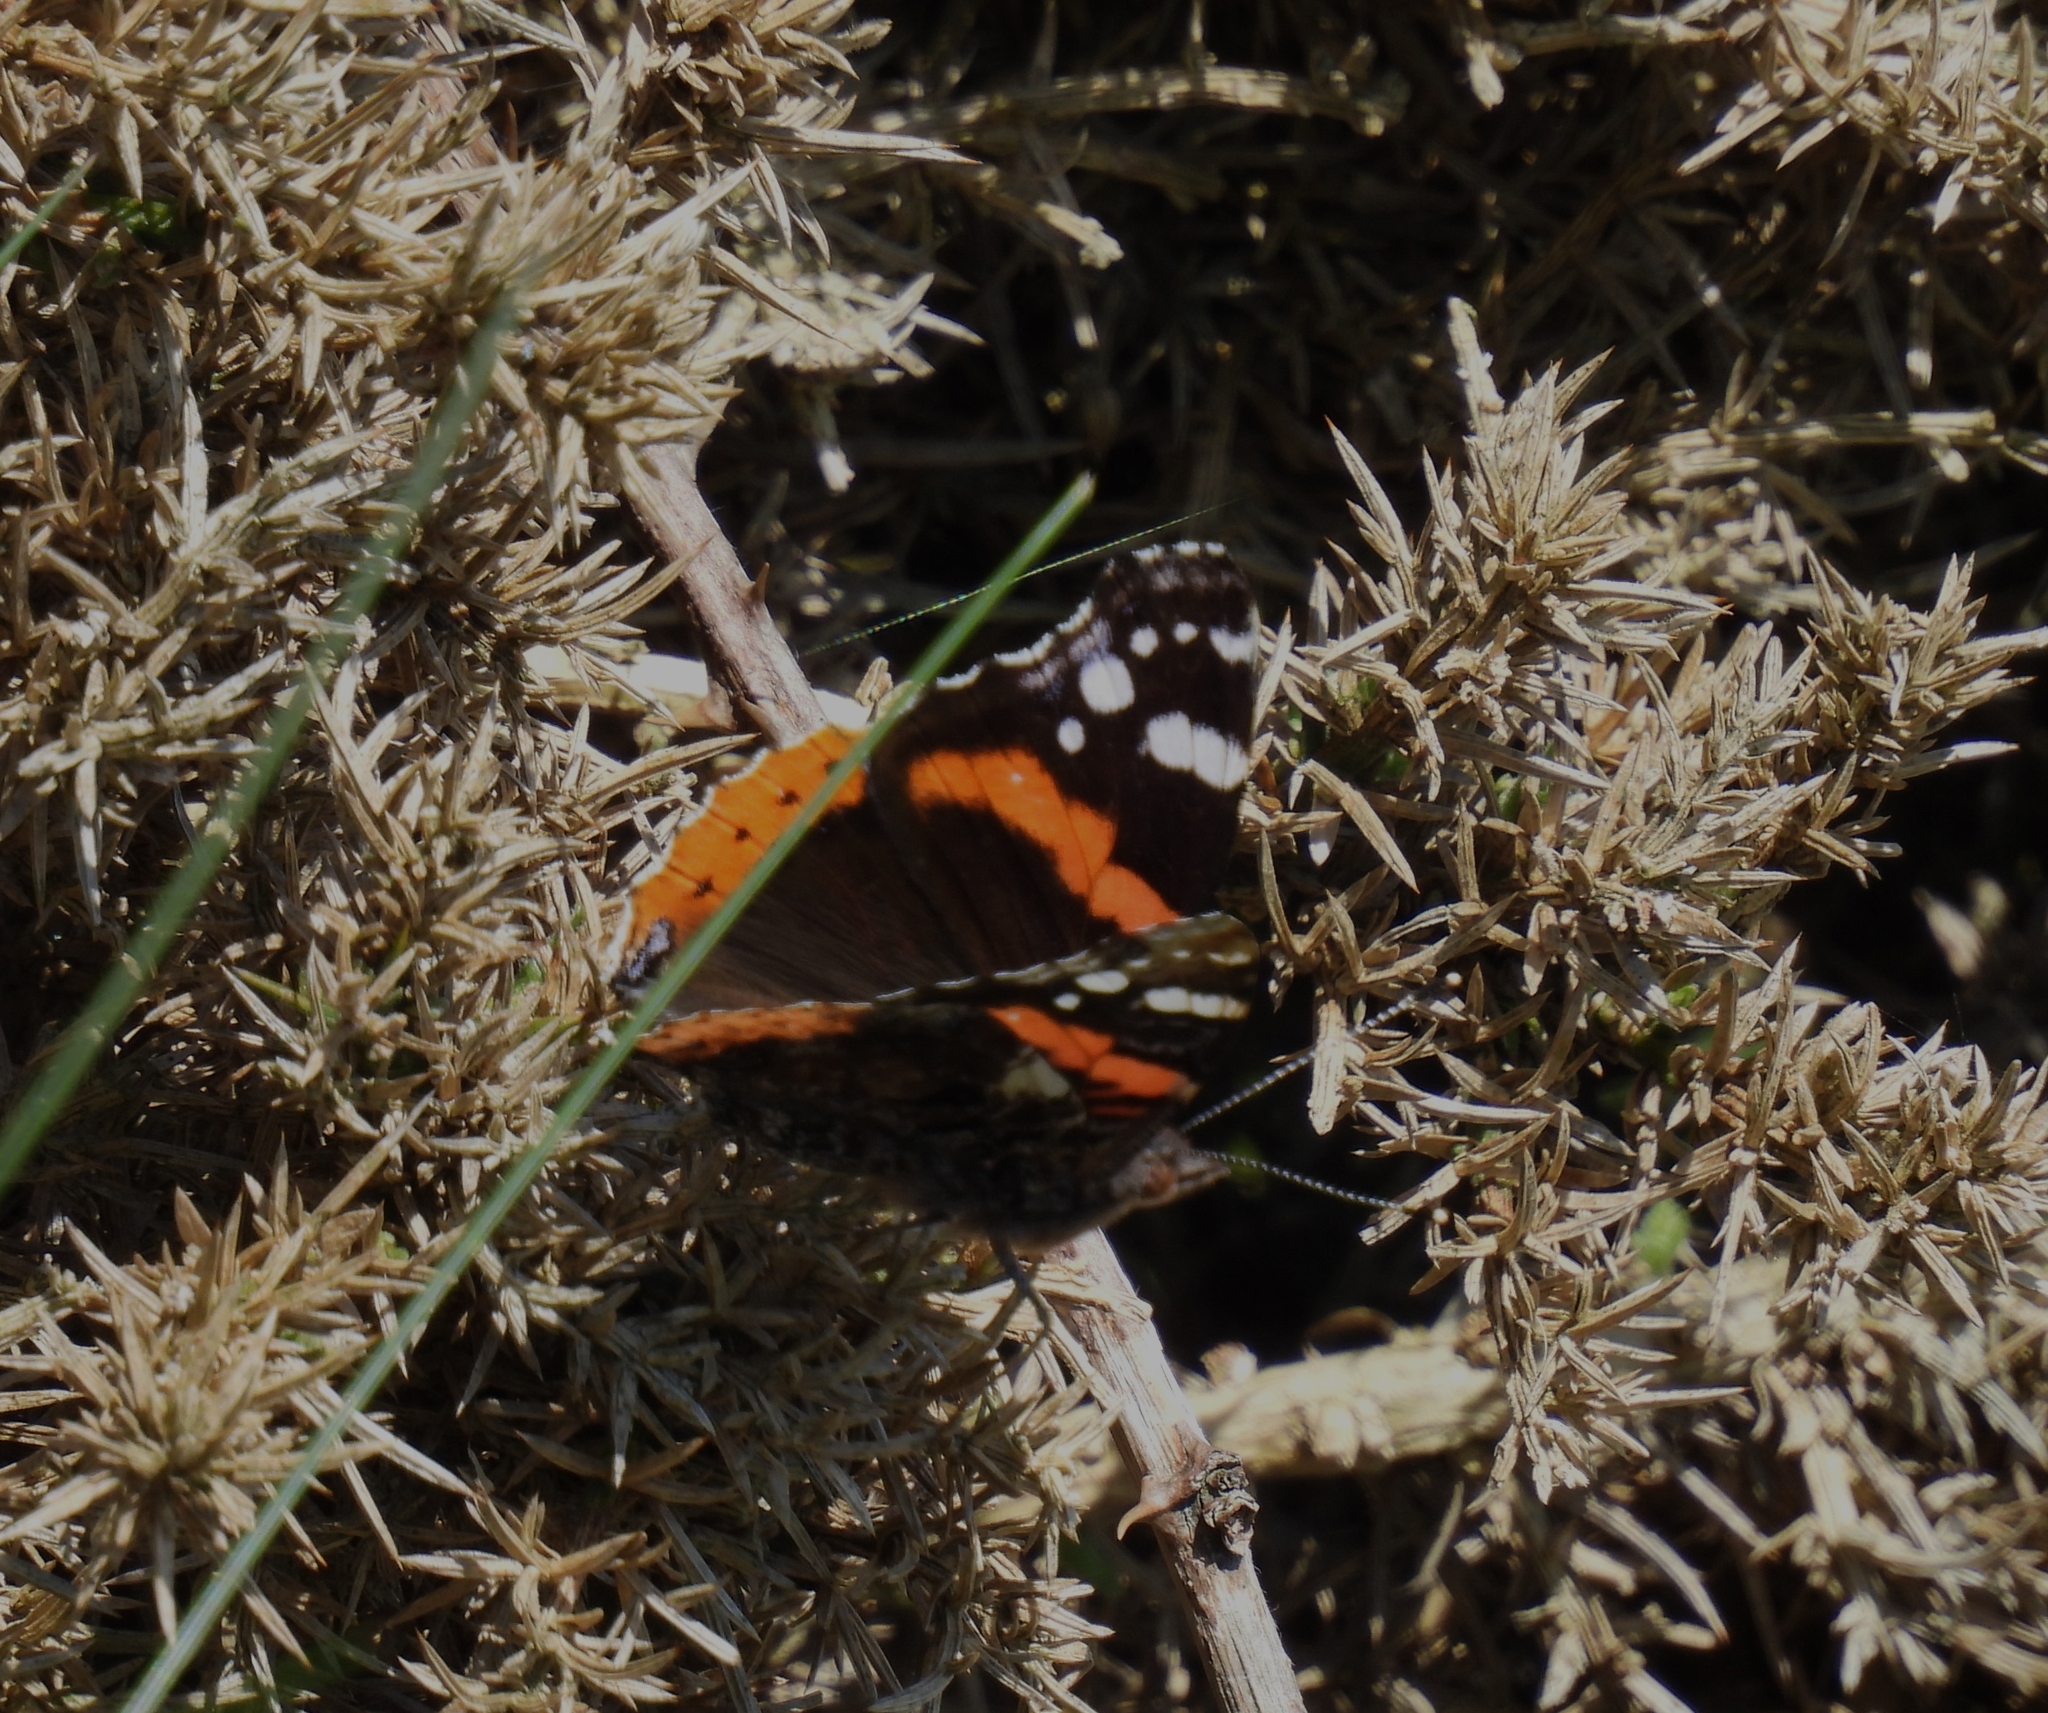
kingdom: Animalia
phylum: Arthropoda
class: Insecta
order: Lepidoptera
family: Nymphalidae
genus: Vanessa
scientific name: Vanessa atalanta
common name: Red admiral
